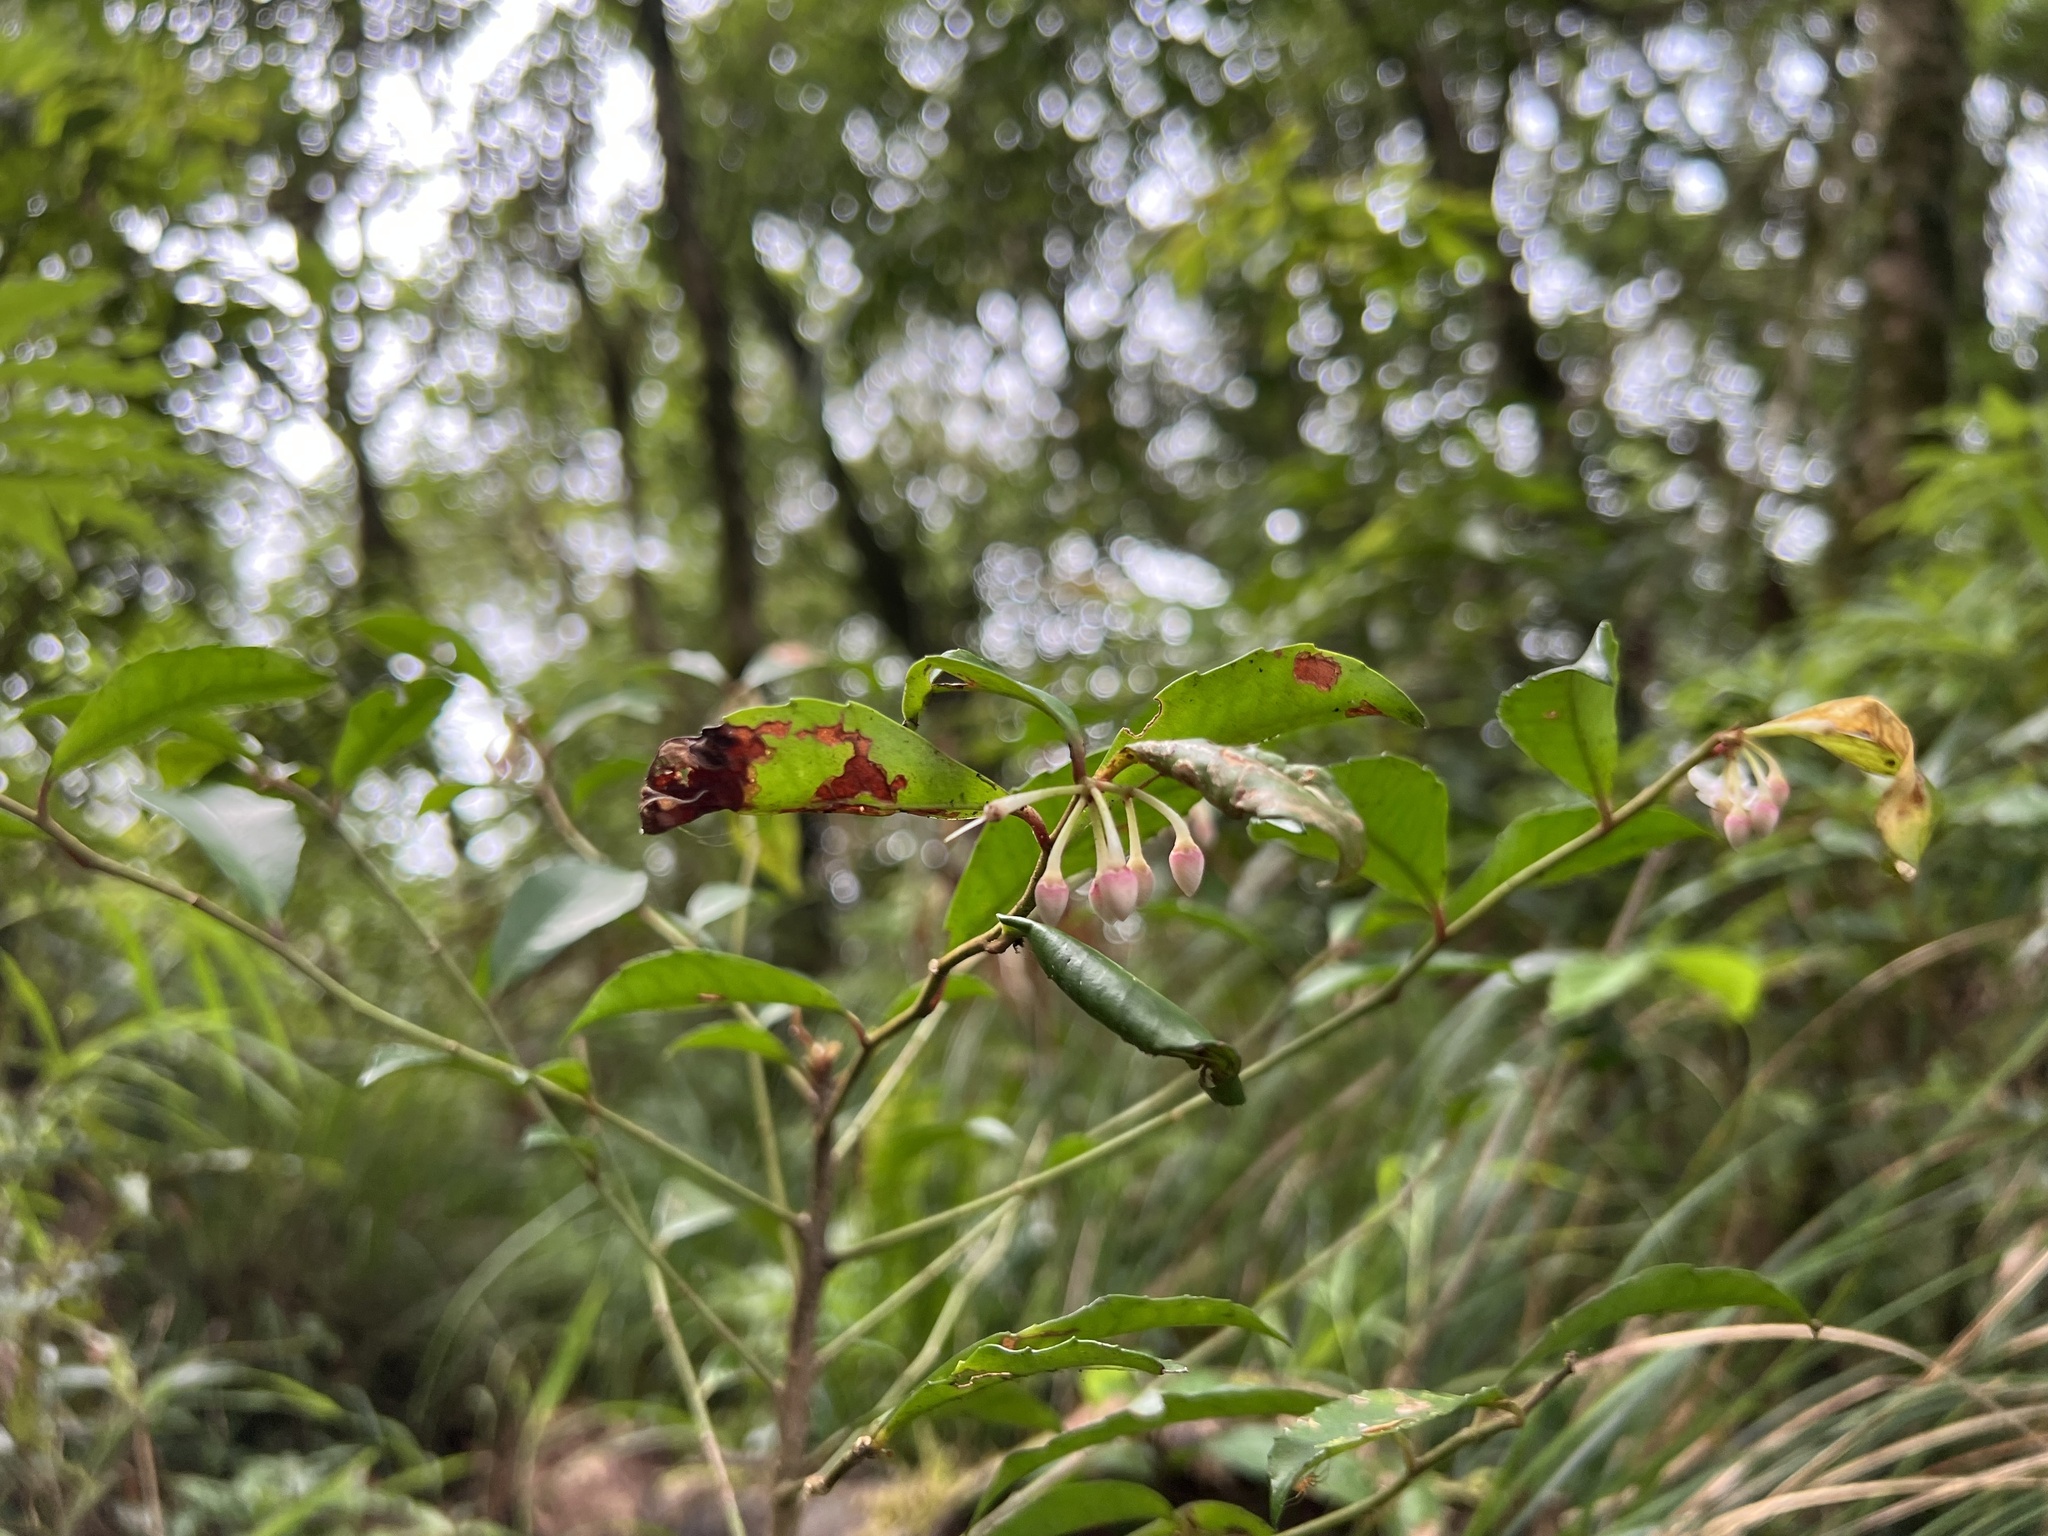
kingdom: Plantae
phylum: Tracheophyta
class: Magnoliopsida
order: Ericales
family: Primulaceae
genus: Ardisia
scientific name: Ardisia cornudentata
